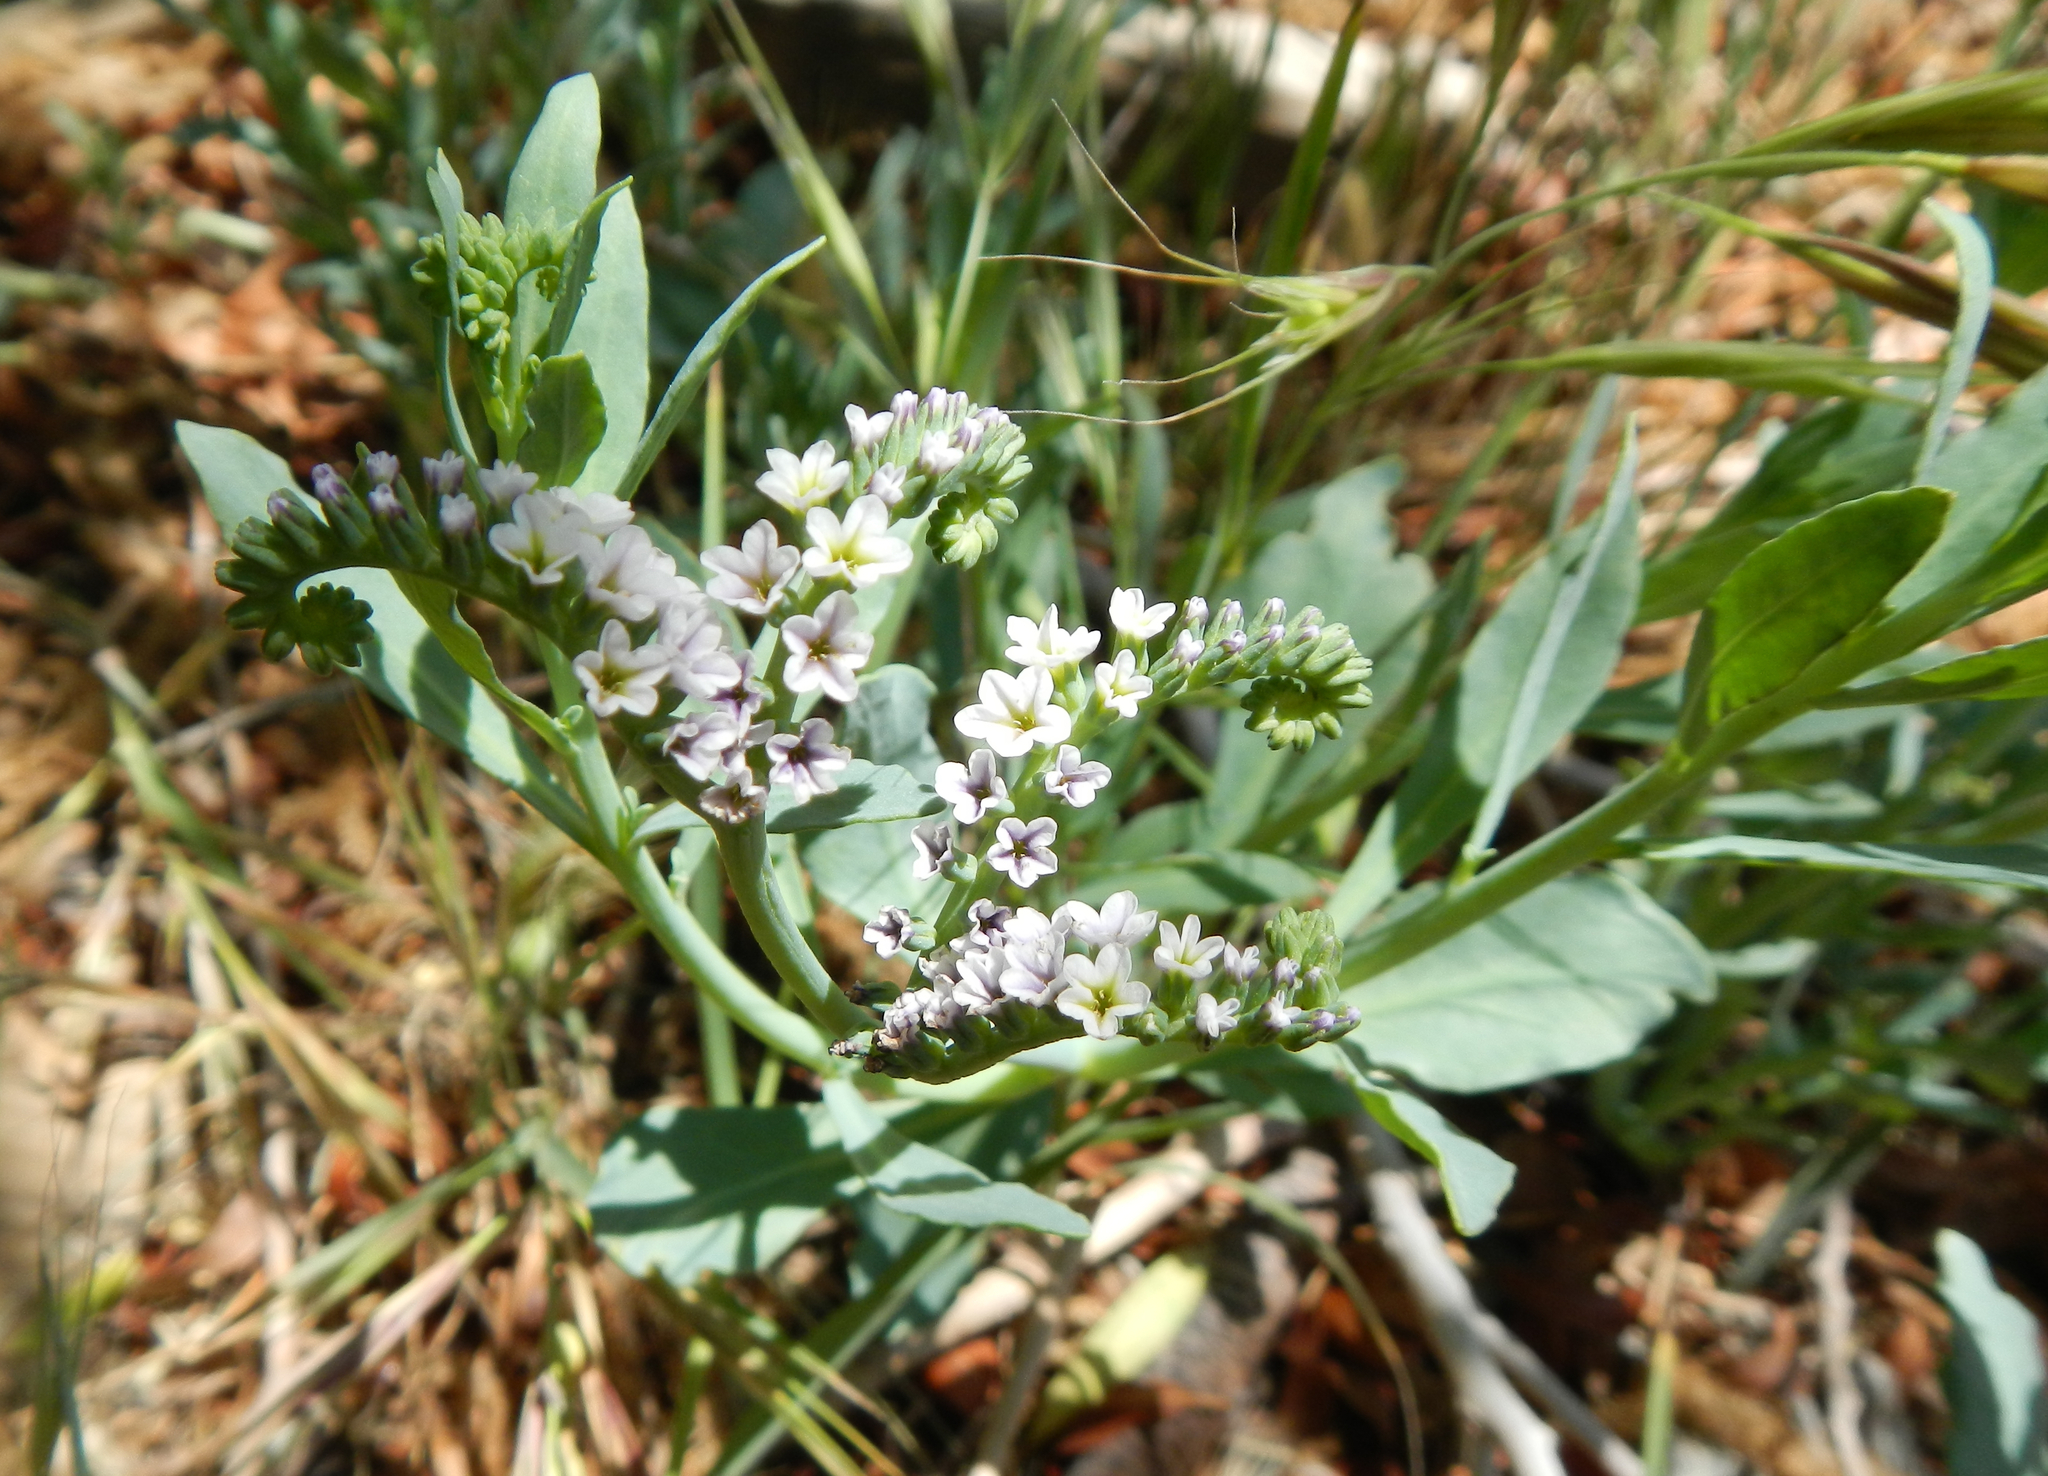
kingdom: Plantae
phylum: Tracheophyta
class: Magnoliopsida
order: Boraginales
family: Heliotropiaceae
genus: Heliotropium
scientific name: Heliotropium curassavicum
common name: Seaside heliotrope
